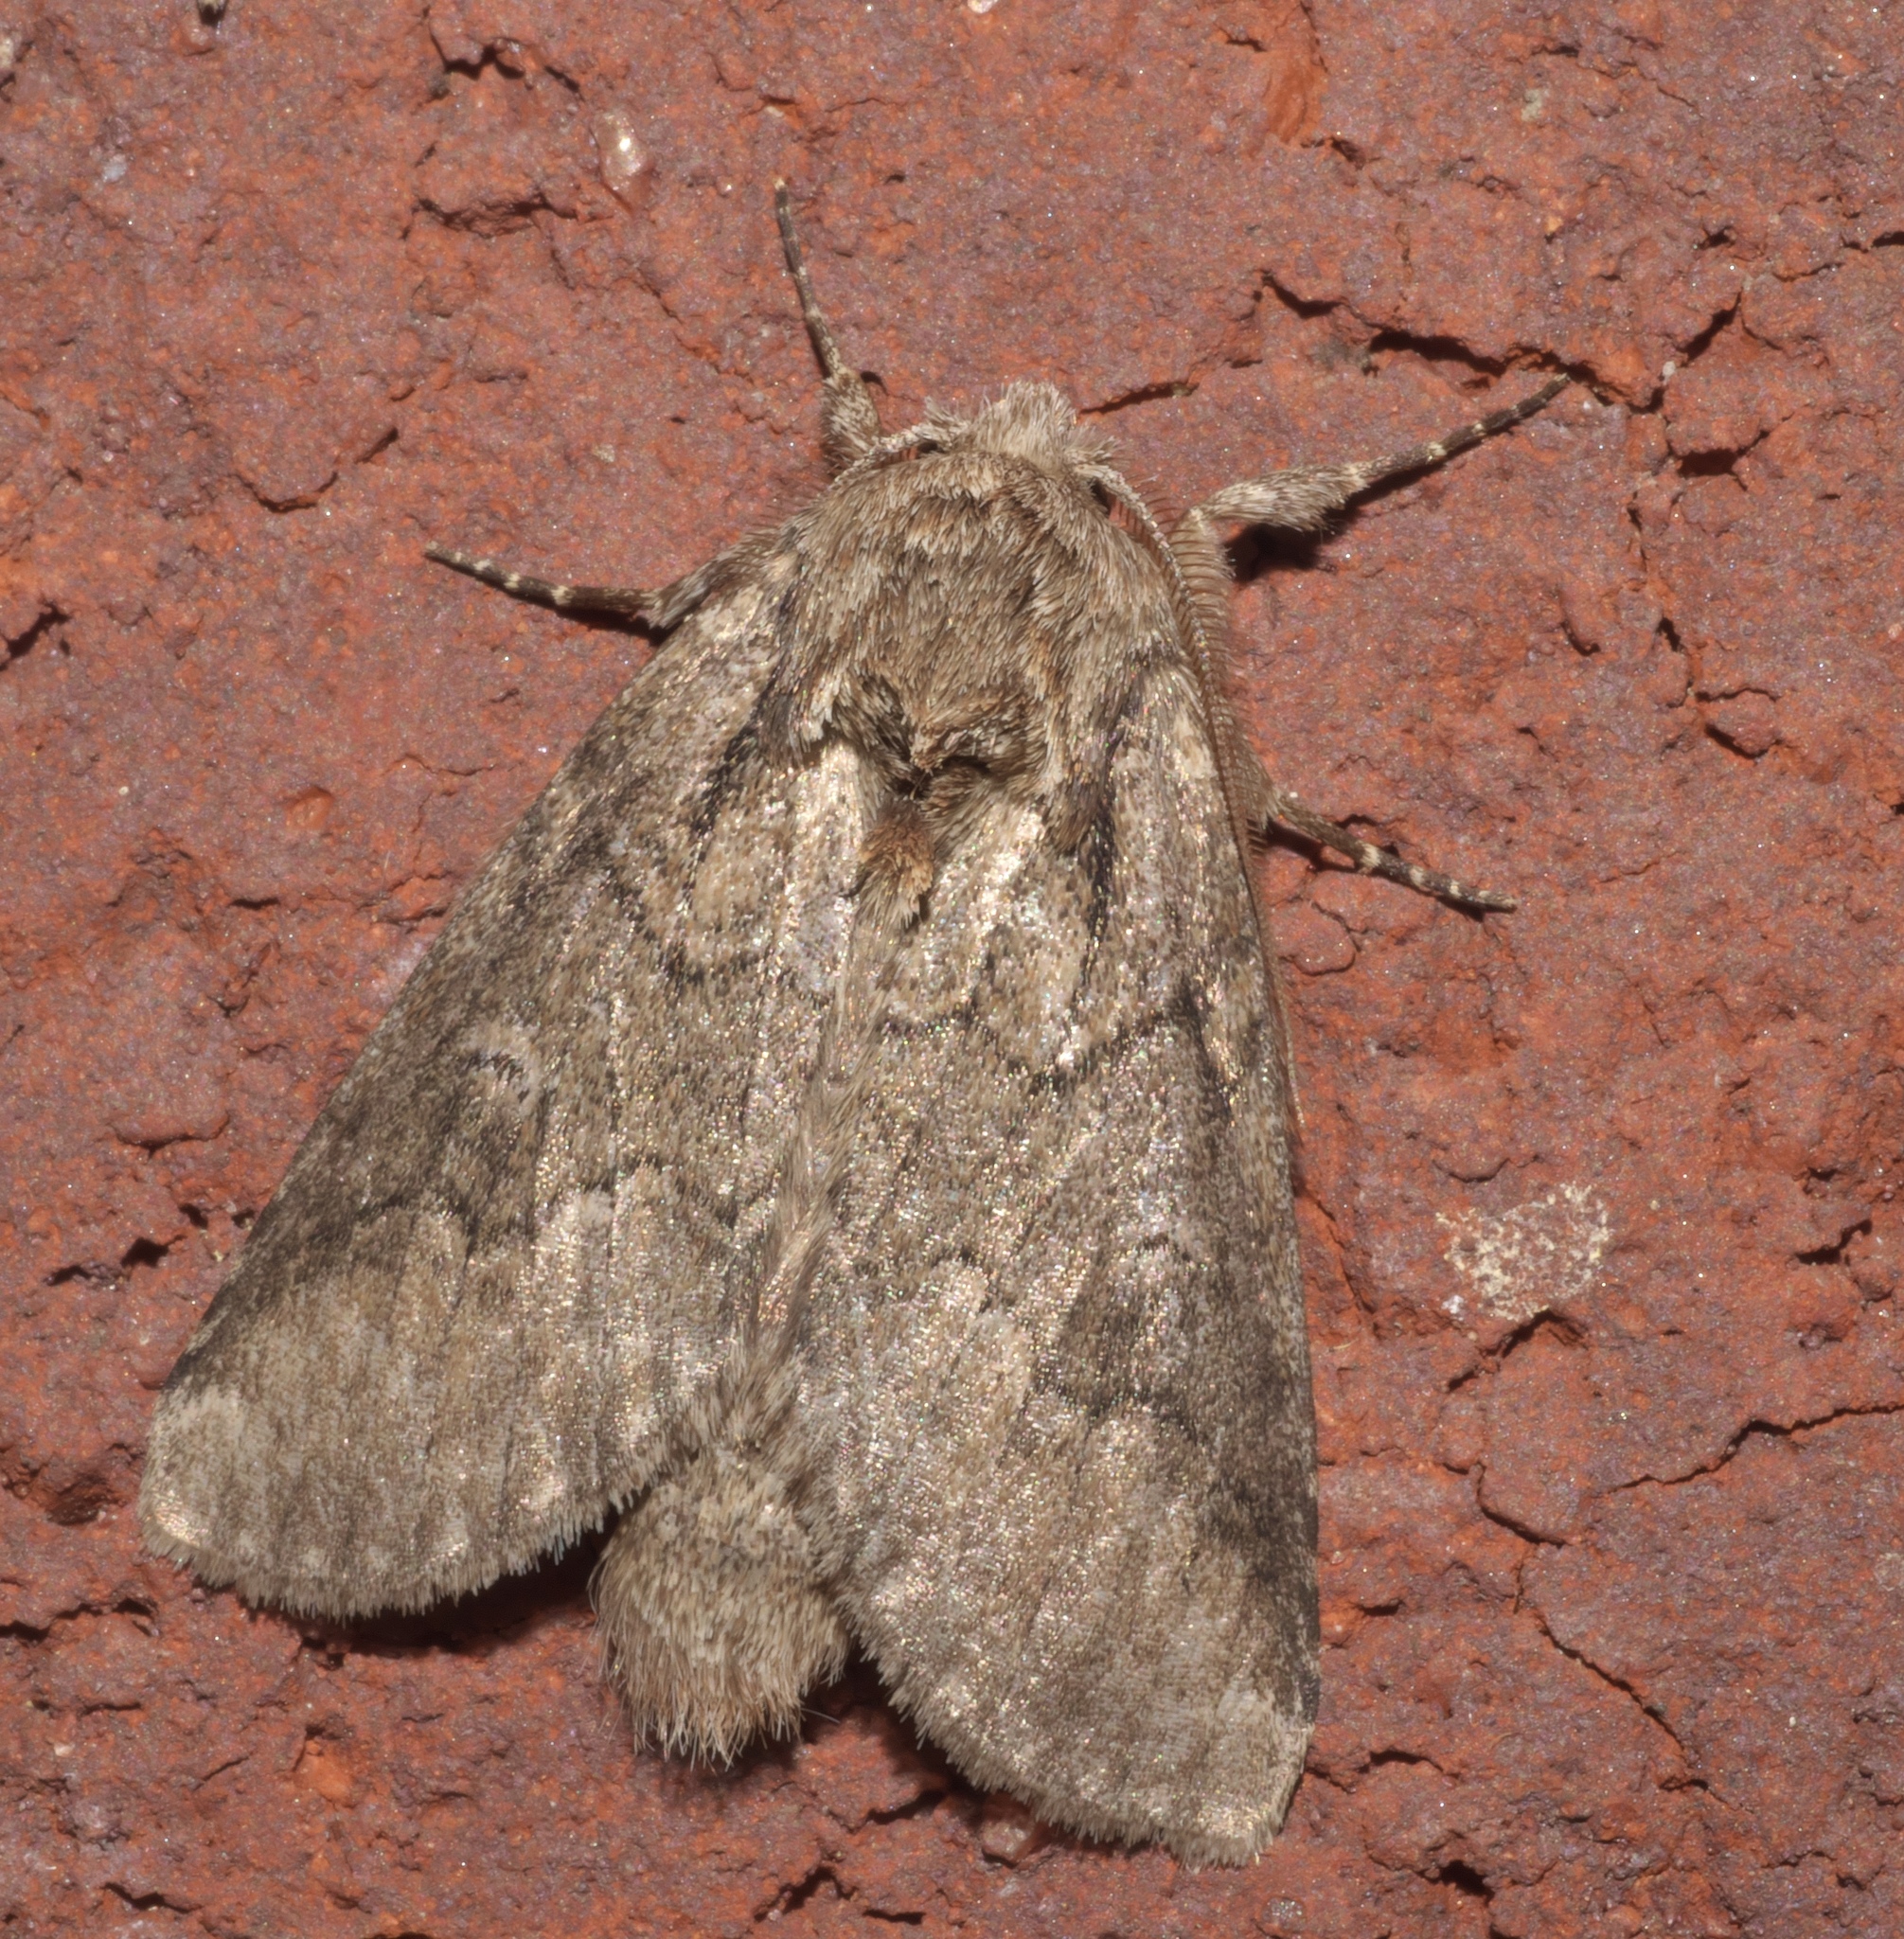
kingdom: Animalia
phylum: Arthropoda
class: Insecta
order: Lepidoptera
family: Notodontidae
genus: Lochmaeus
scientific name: Lochmaeus bilineata
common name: Double-lined prominent
